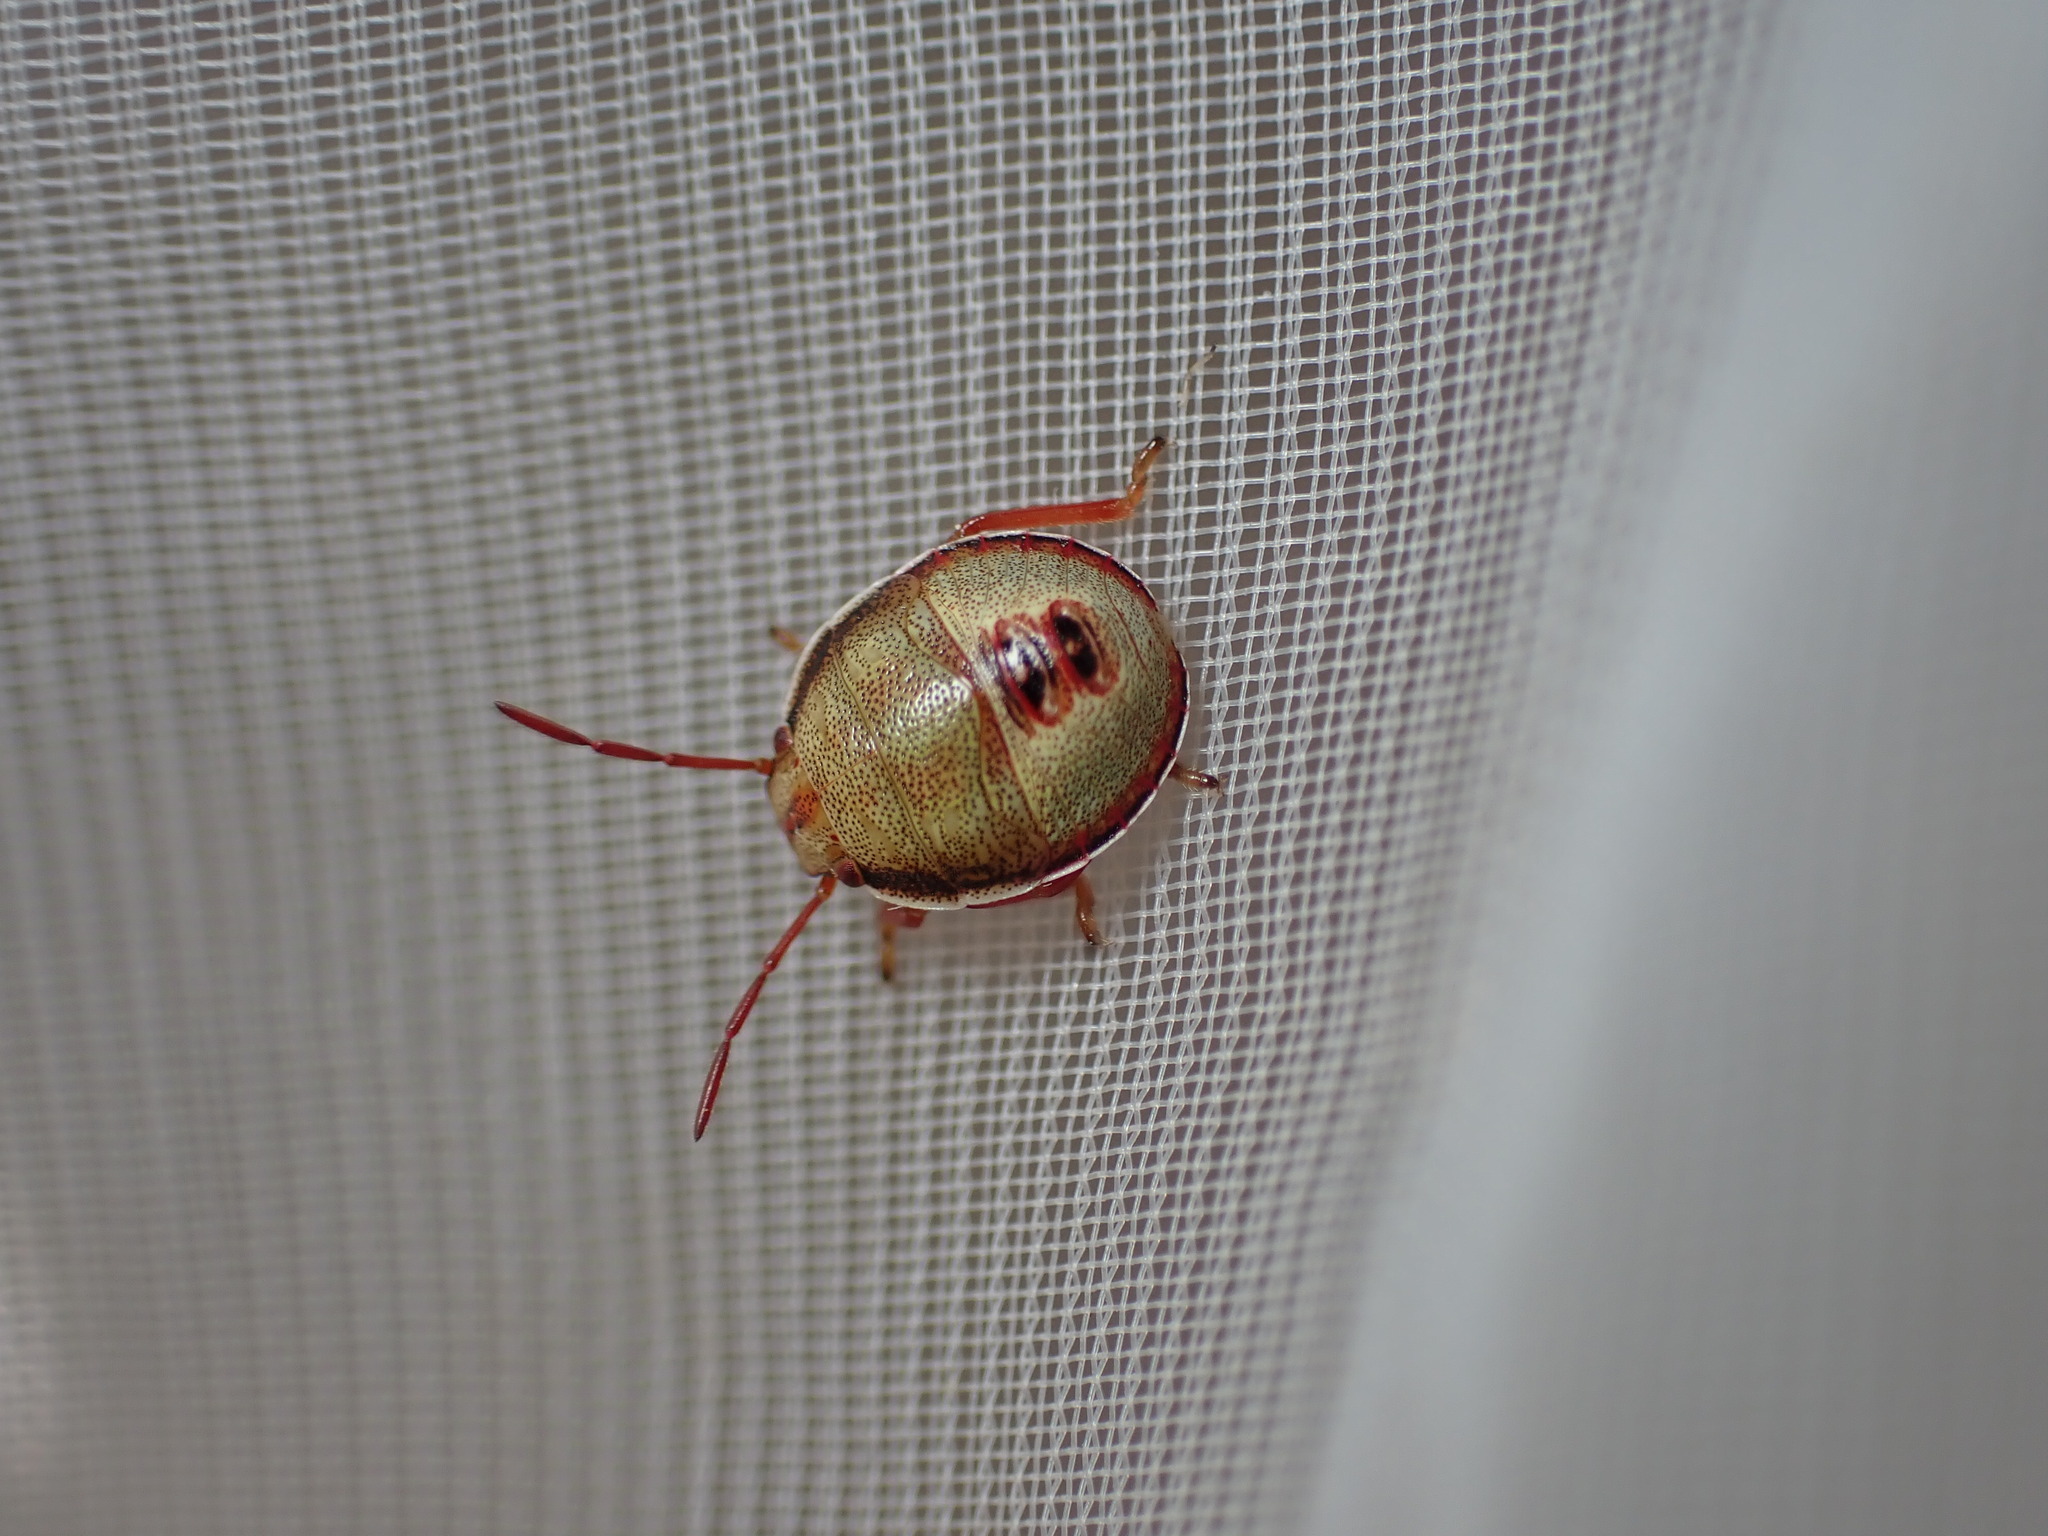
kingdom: Animalia
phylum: Arthropoda
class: Insecta
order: Hemiptera
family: Pentatomidae
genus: Piezodorus
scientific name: Piezodorus lituratus
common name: Stink bug
